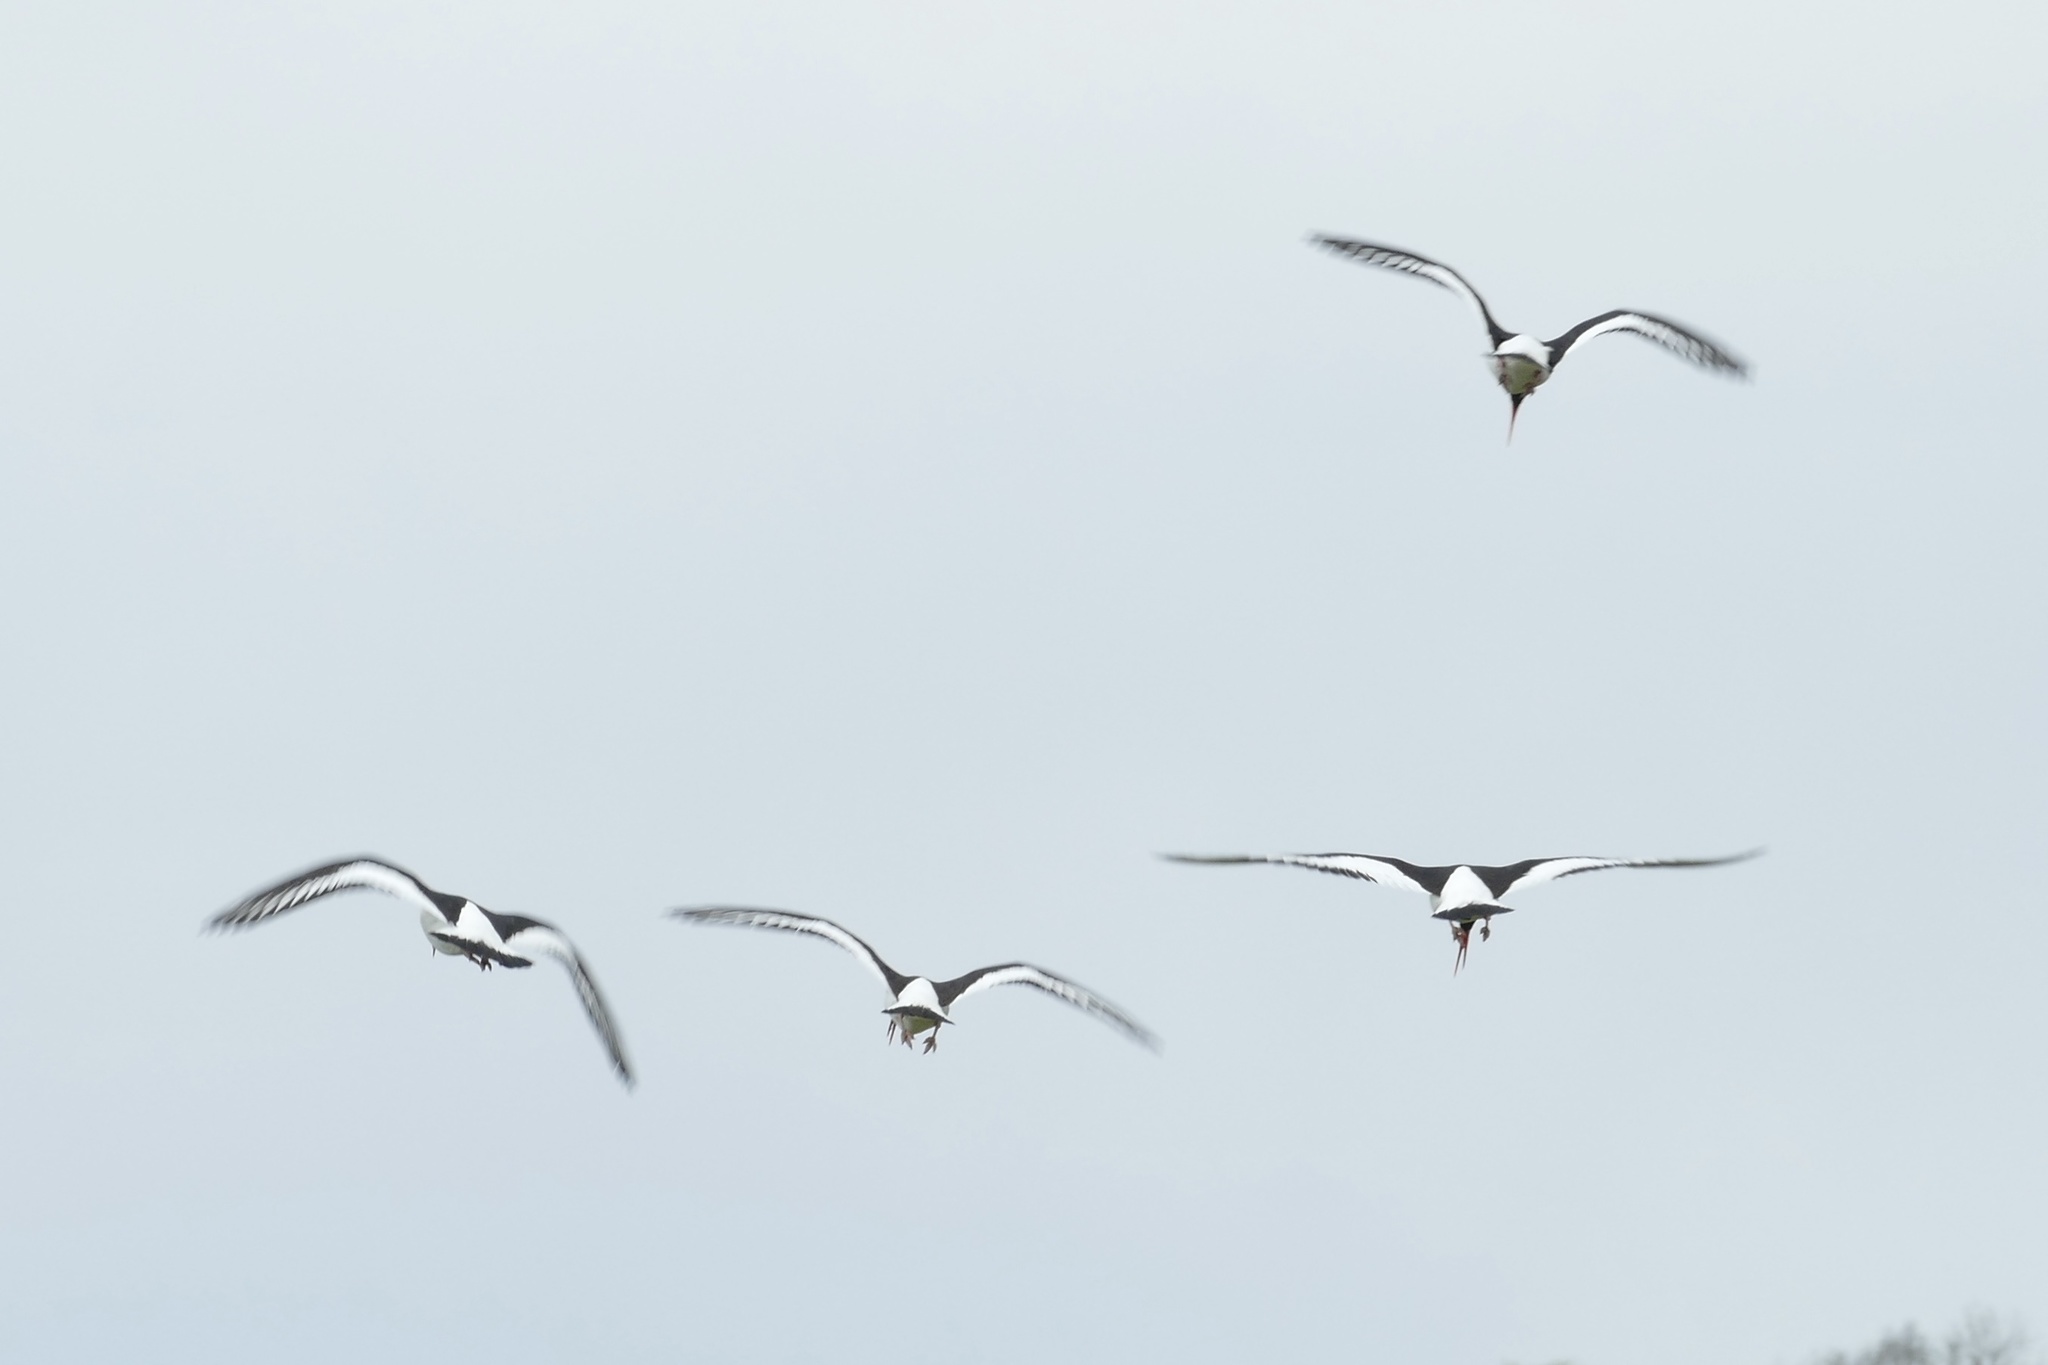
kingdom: Animalia
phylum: Chordata
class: Aves
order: Charadriiformes
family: Haematopodidae
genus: Haematopus
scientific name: Haematopus ostralegus
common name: Eurasian oystercatcher
